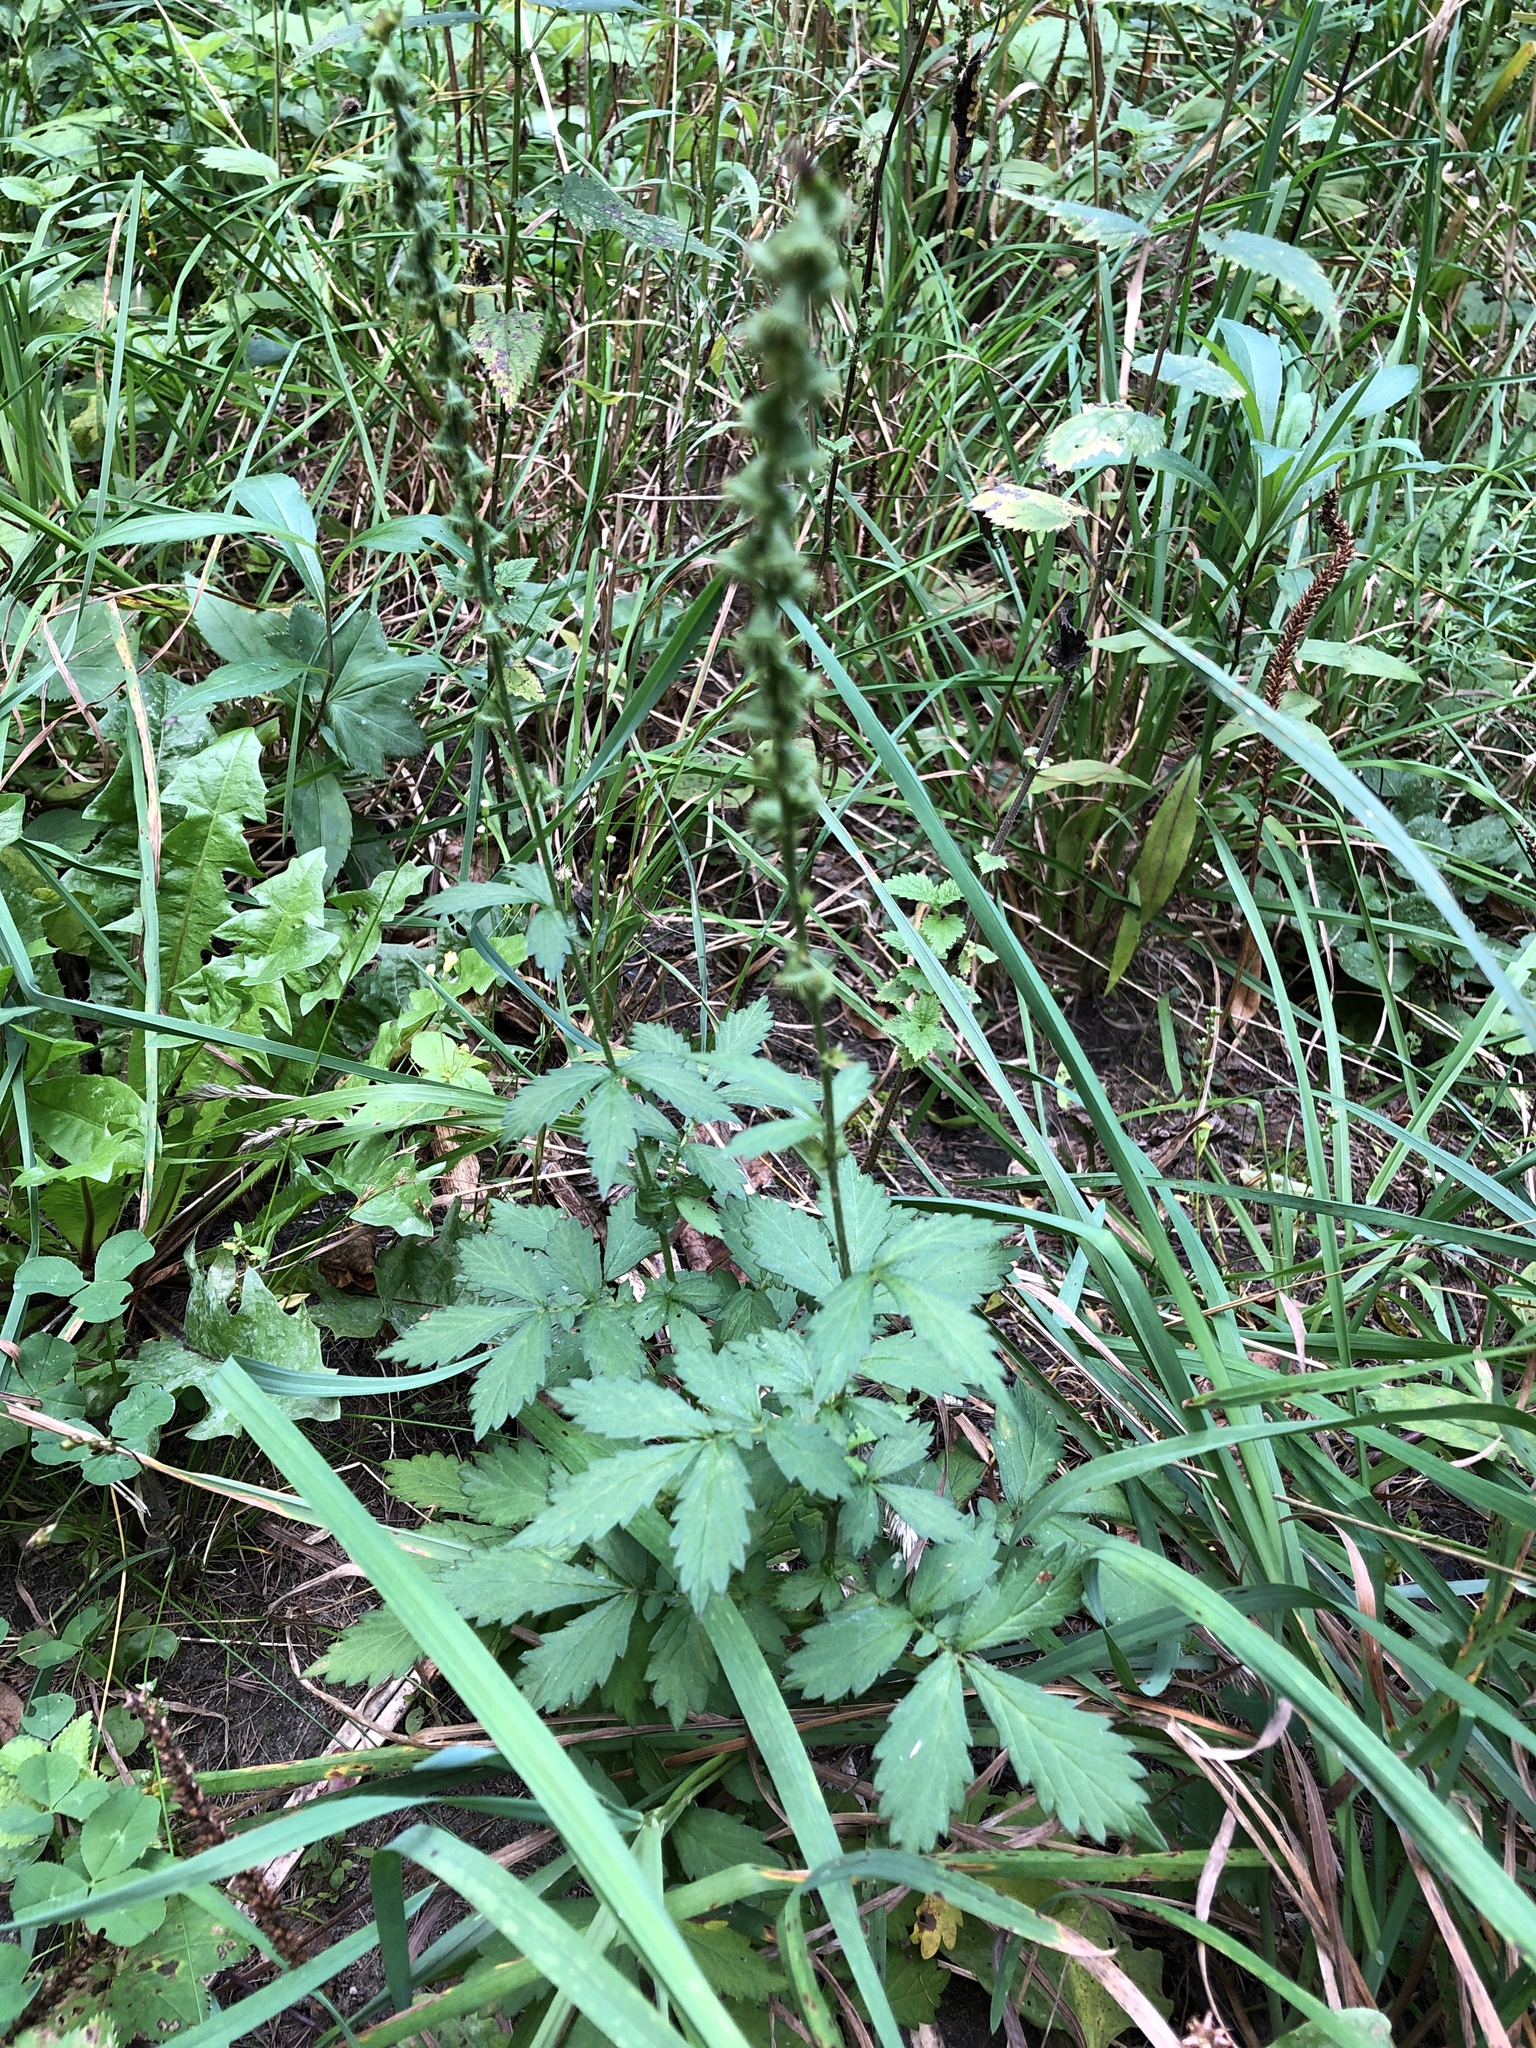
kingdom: Plantae
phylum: Tracheophyta
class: Magnoliopsida
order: Rosales
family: Rosaceae
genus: Agrimonia
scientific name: Agrimonia pilosa
